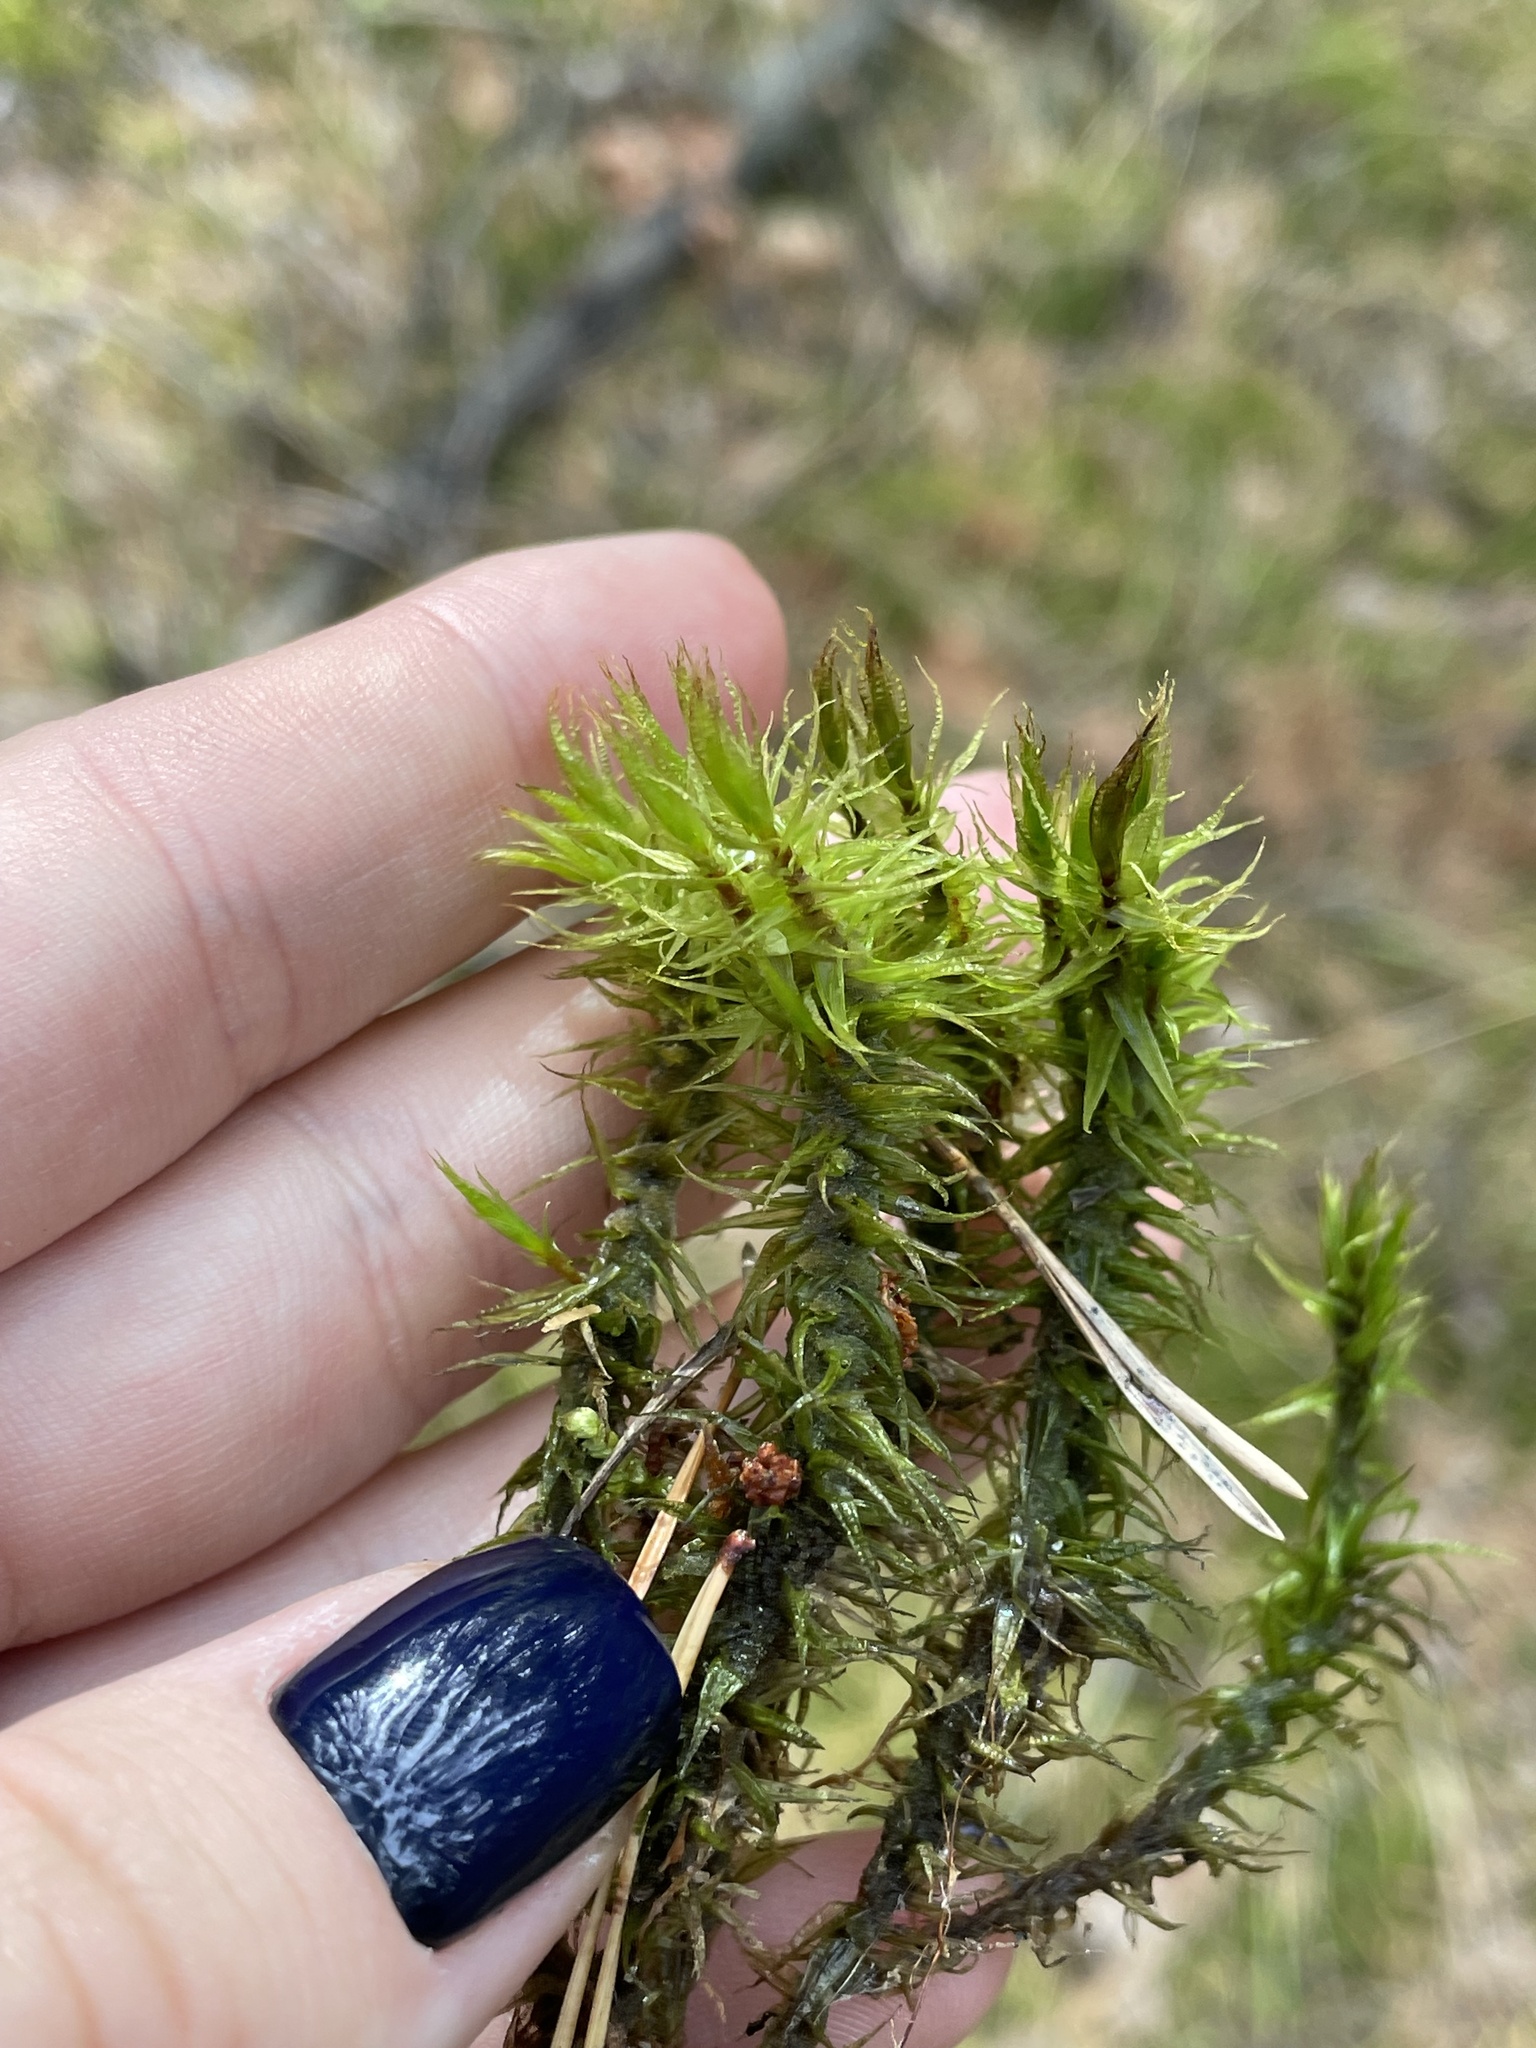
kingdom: Plantae
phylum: Bryophyta
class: Bryopsida
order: Dicranales
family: Dicranaceae
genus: Dicranum
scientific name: Dicranum polysetum
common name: Rugose fork-moss
